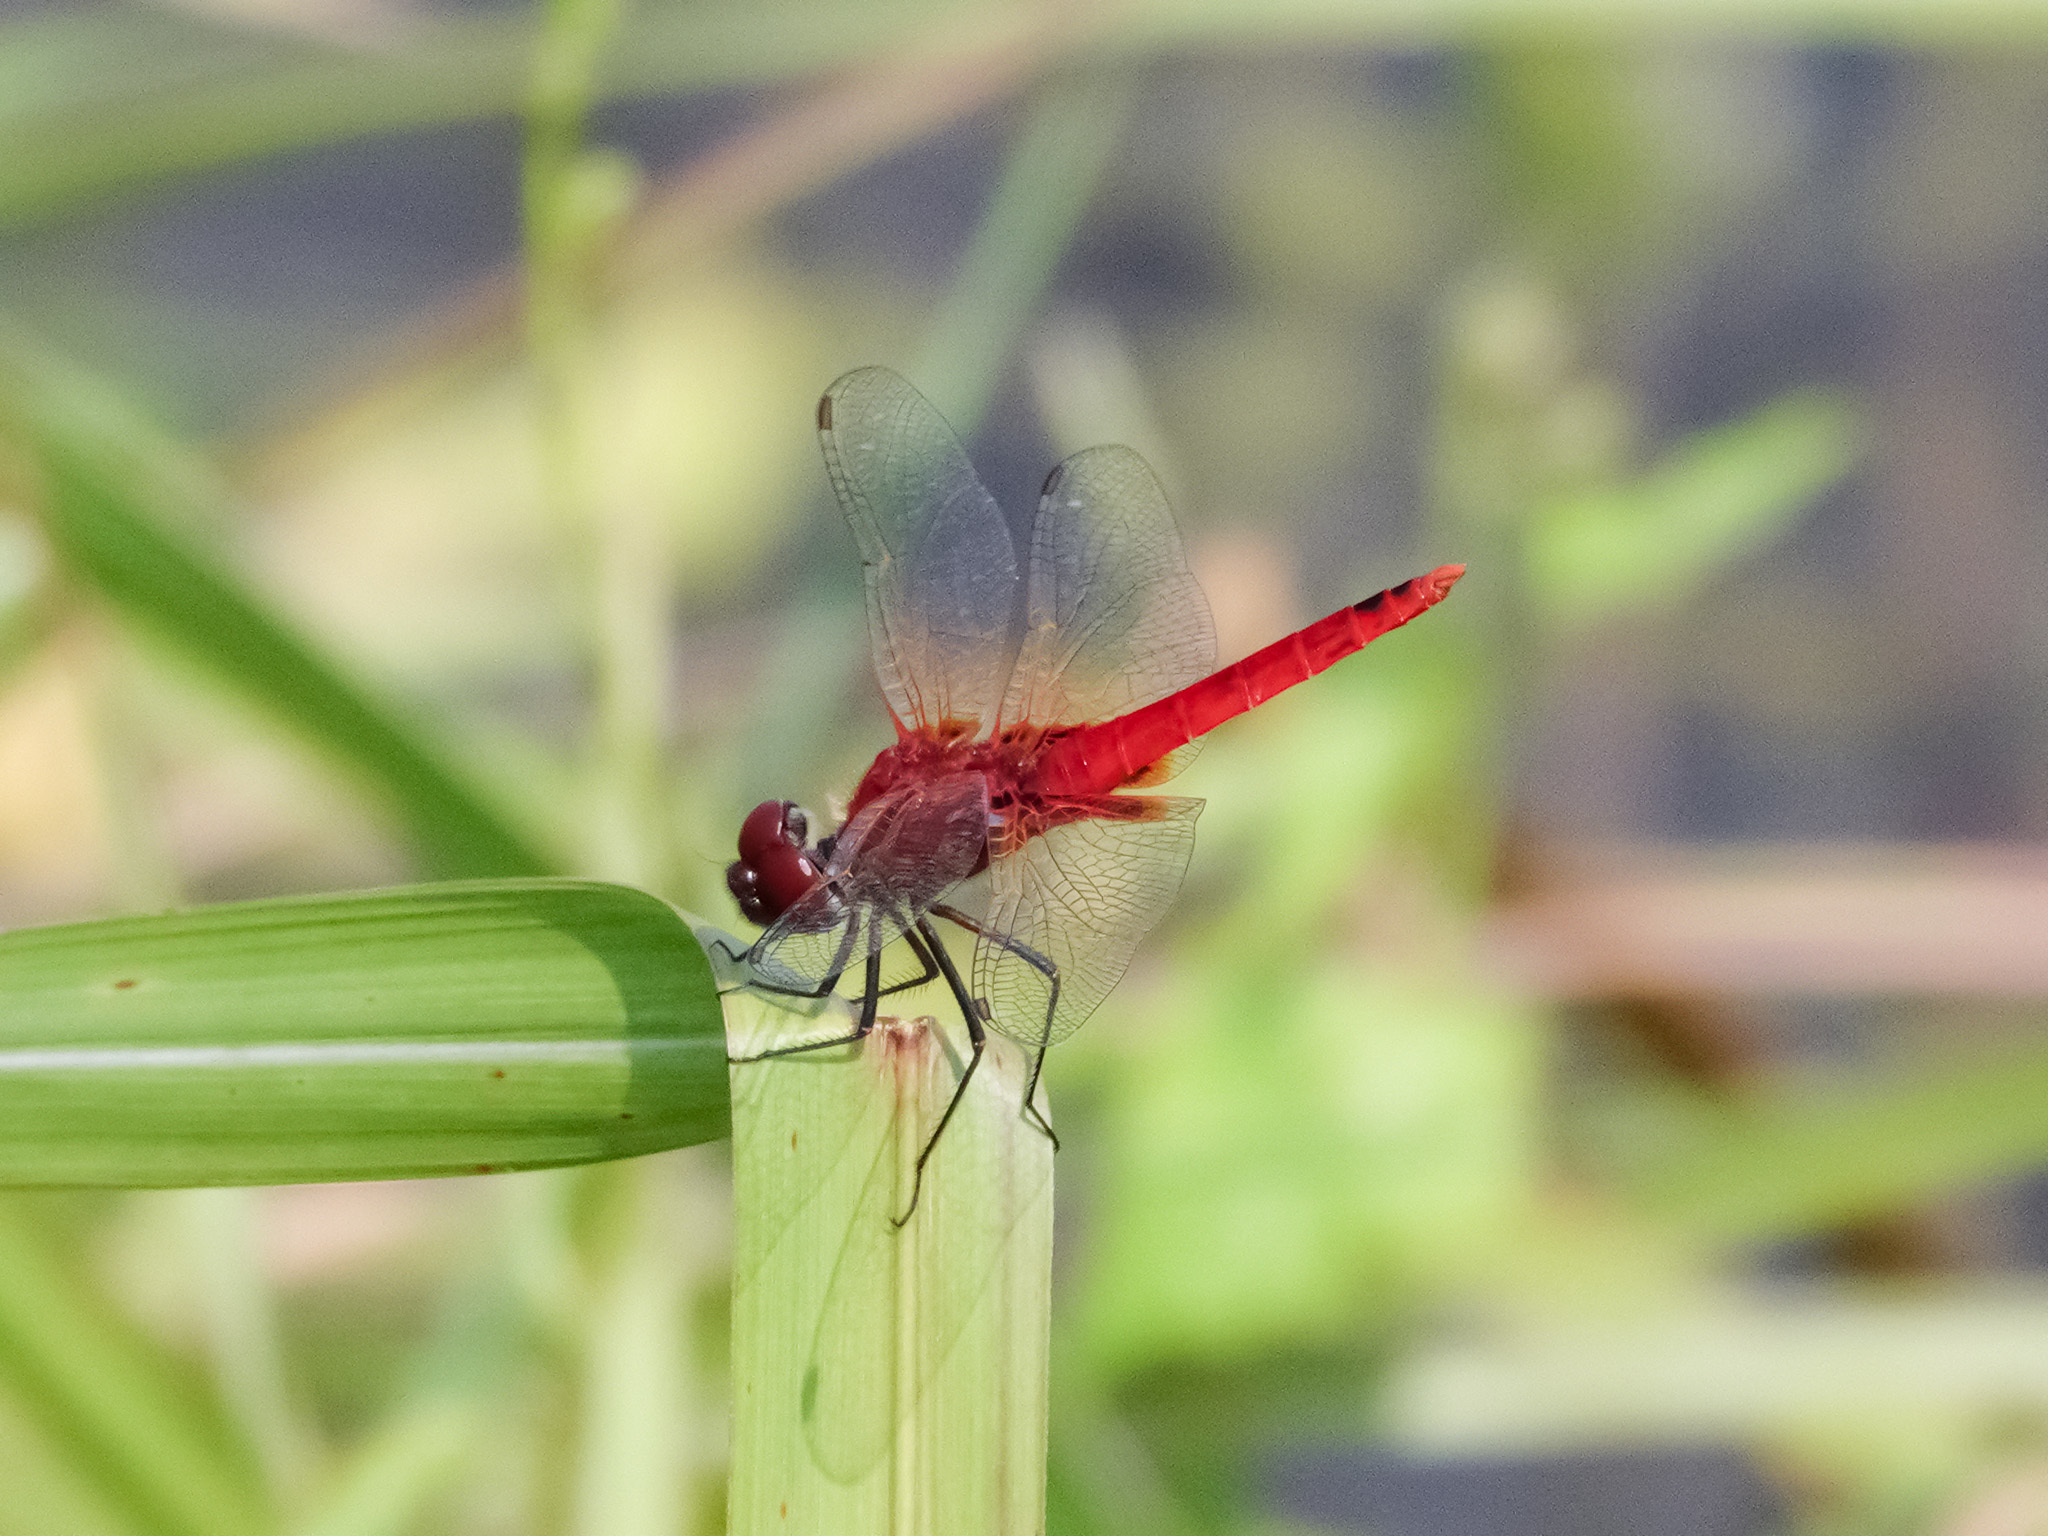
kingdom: Animalia
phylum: Arthropoda
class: Insecta
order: Odonata
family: Libellulidae
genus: Urothemis
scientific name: Urothemis signata
